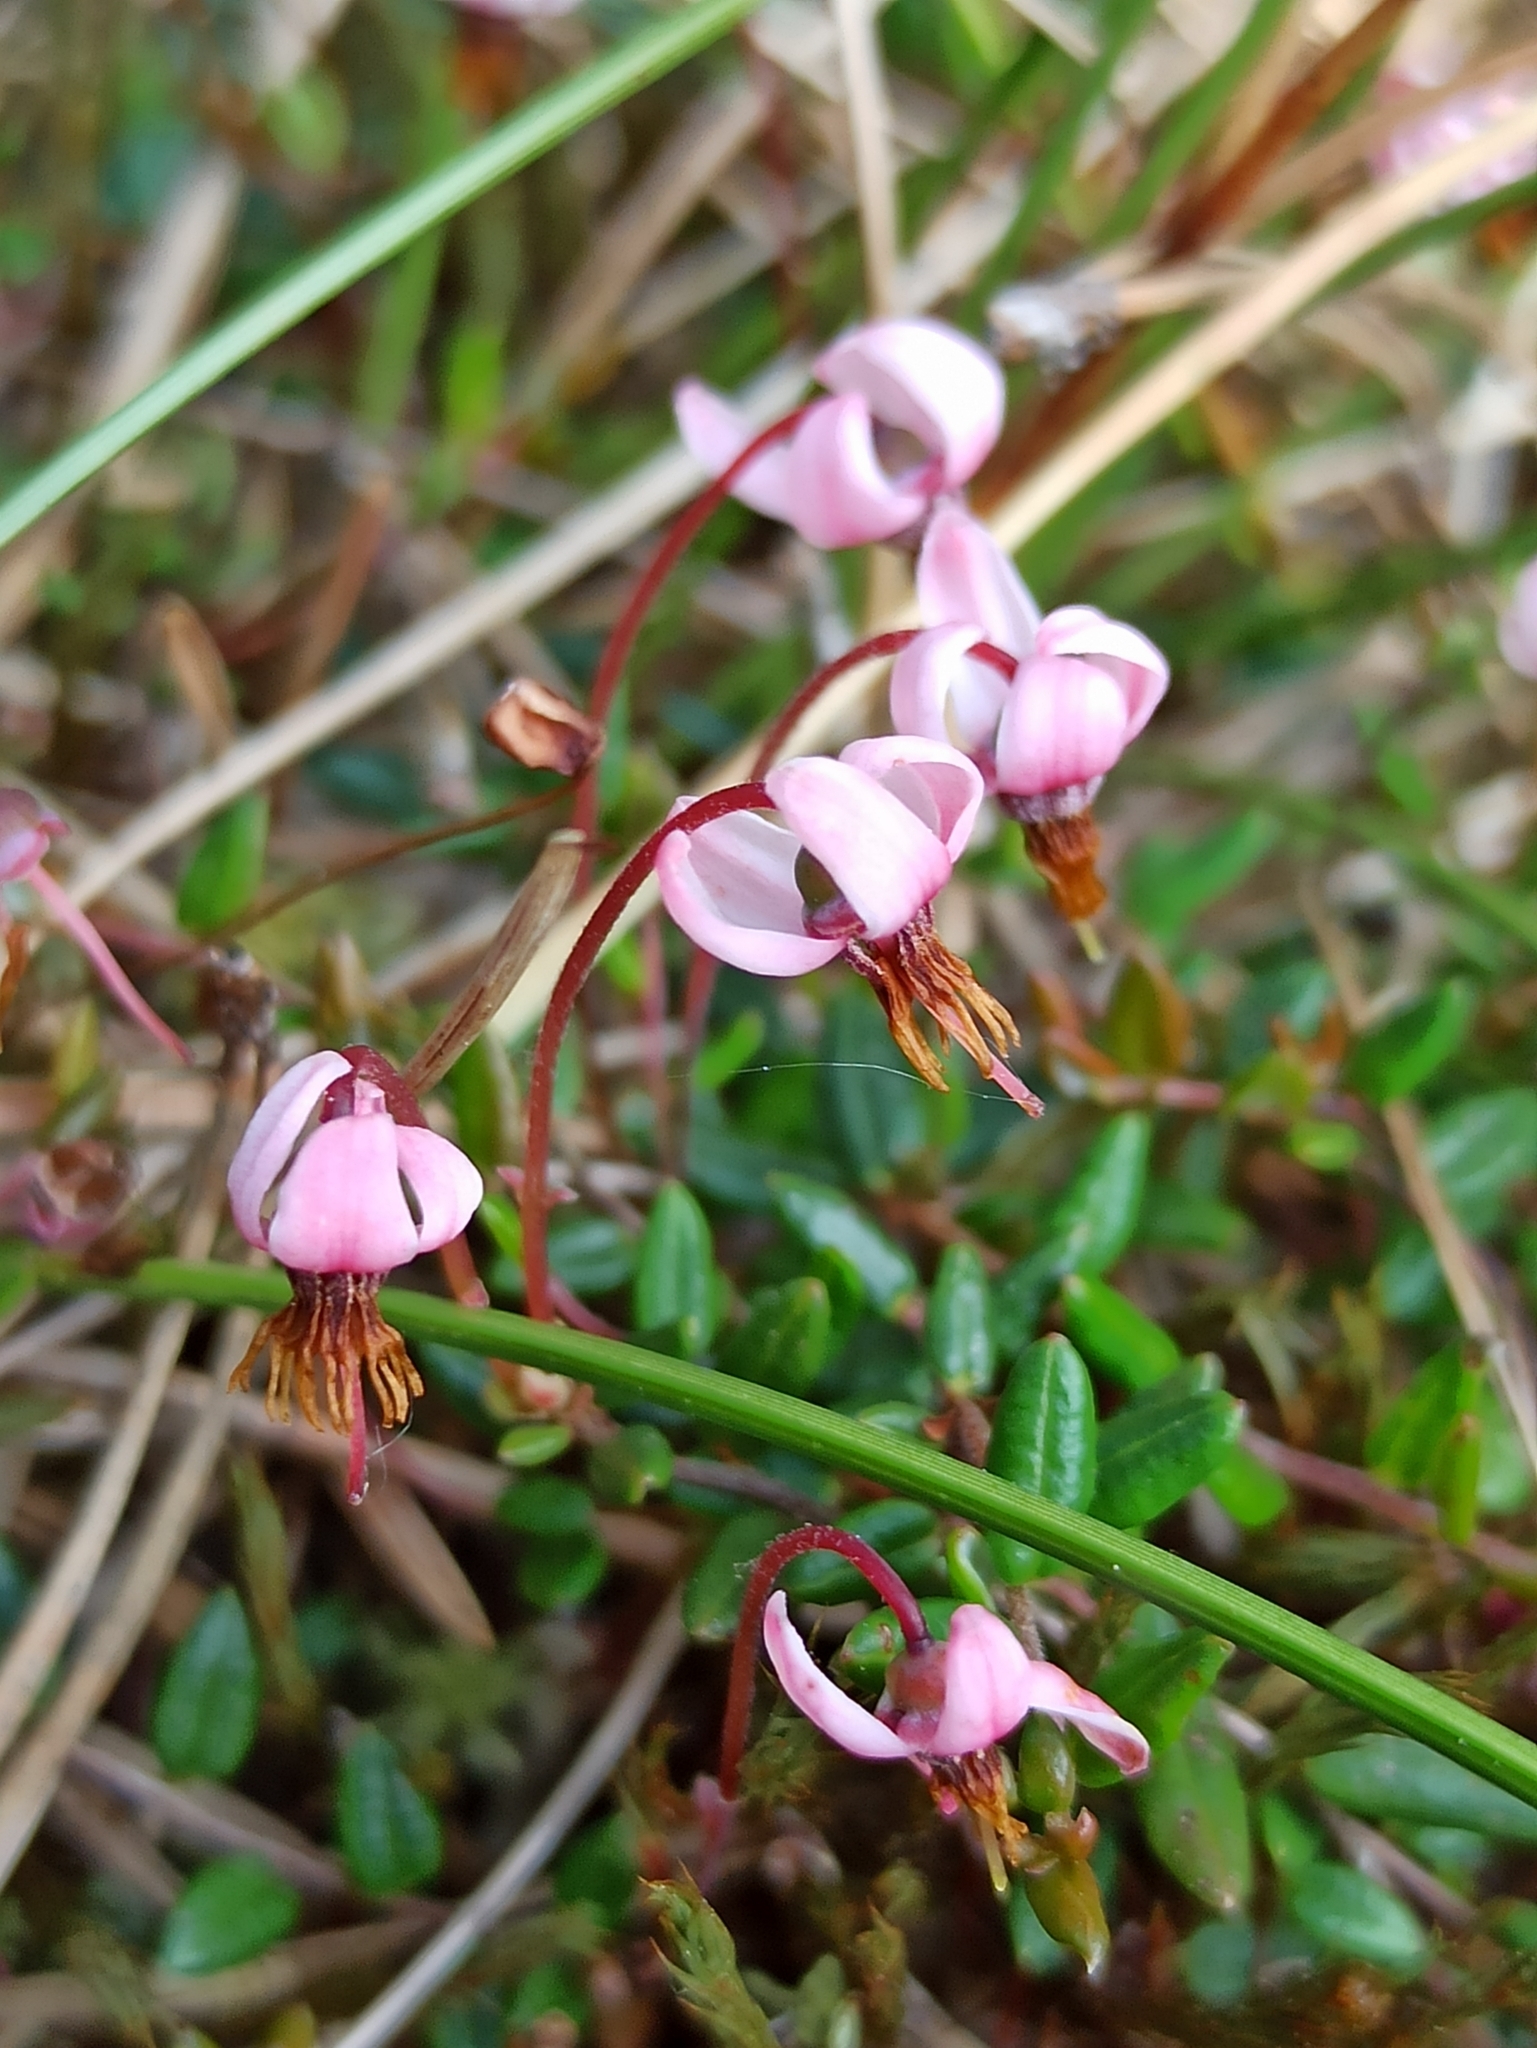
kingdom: Plantae
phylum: Tracheophyta
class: Magnoliopsida
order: Ericales
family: Ericaceae
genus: Vaccinium
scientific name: Vaccinium oxycoccos
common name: Cranberry
